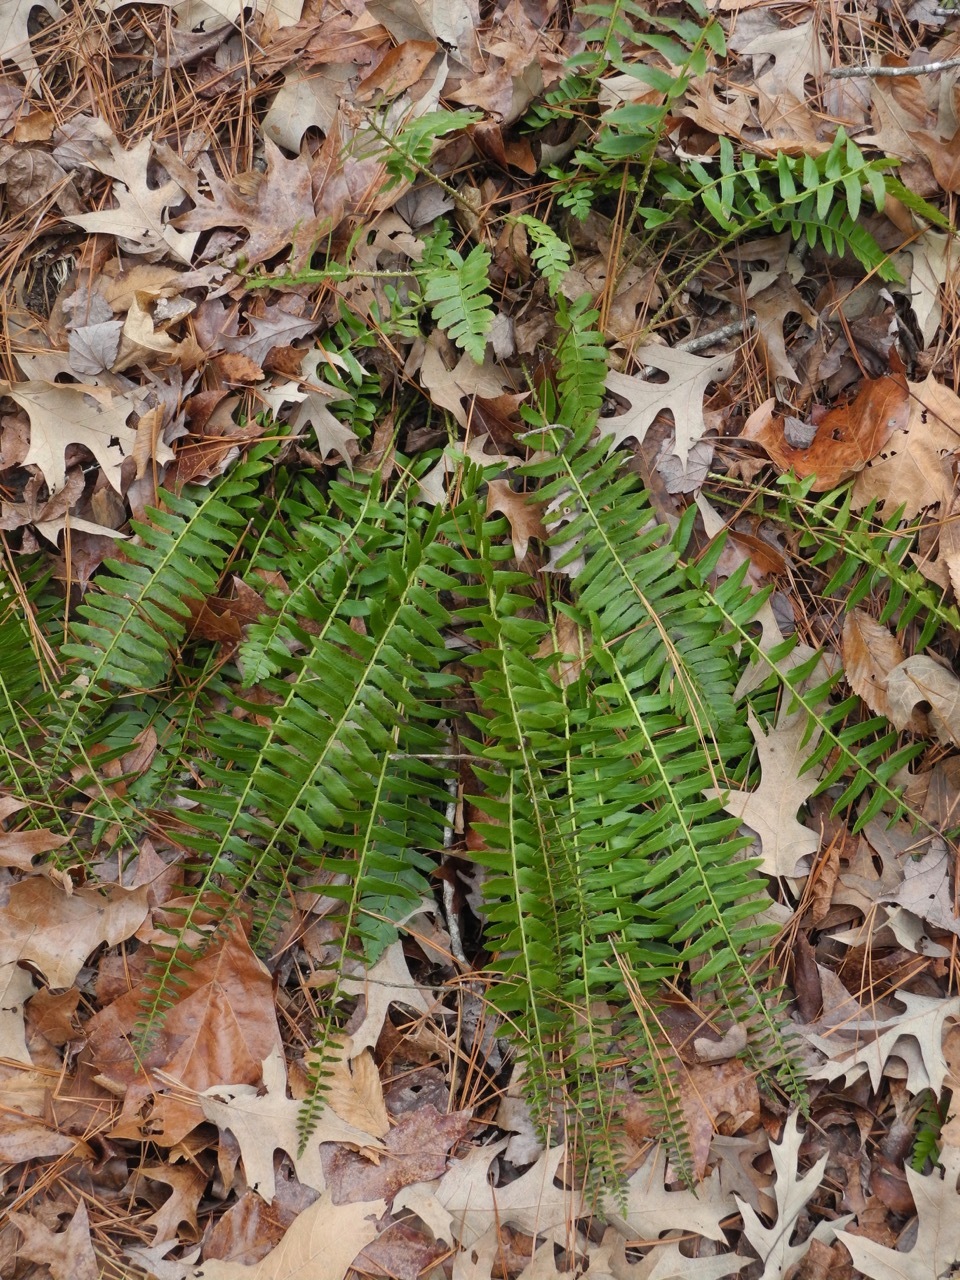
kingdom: Plantae
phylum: Tracheophyta
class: Polypodiopsida
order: Polypodiales
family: Dryopteridaceae
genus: Polystichum
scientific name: Polystichum acrostichoides
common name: Christmas fern
